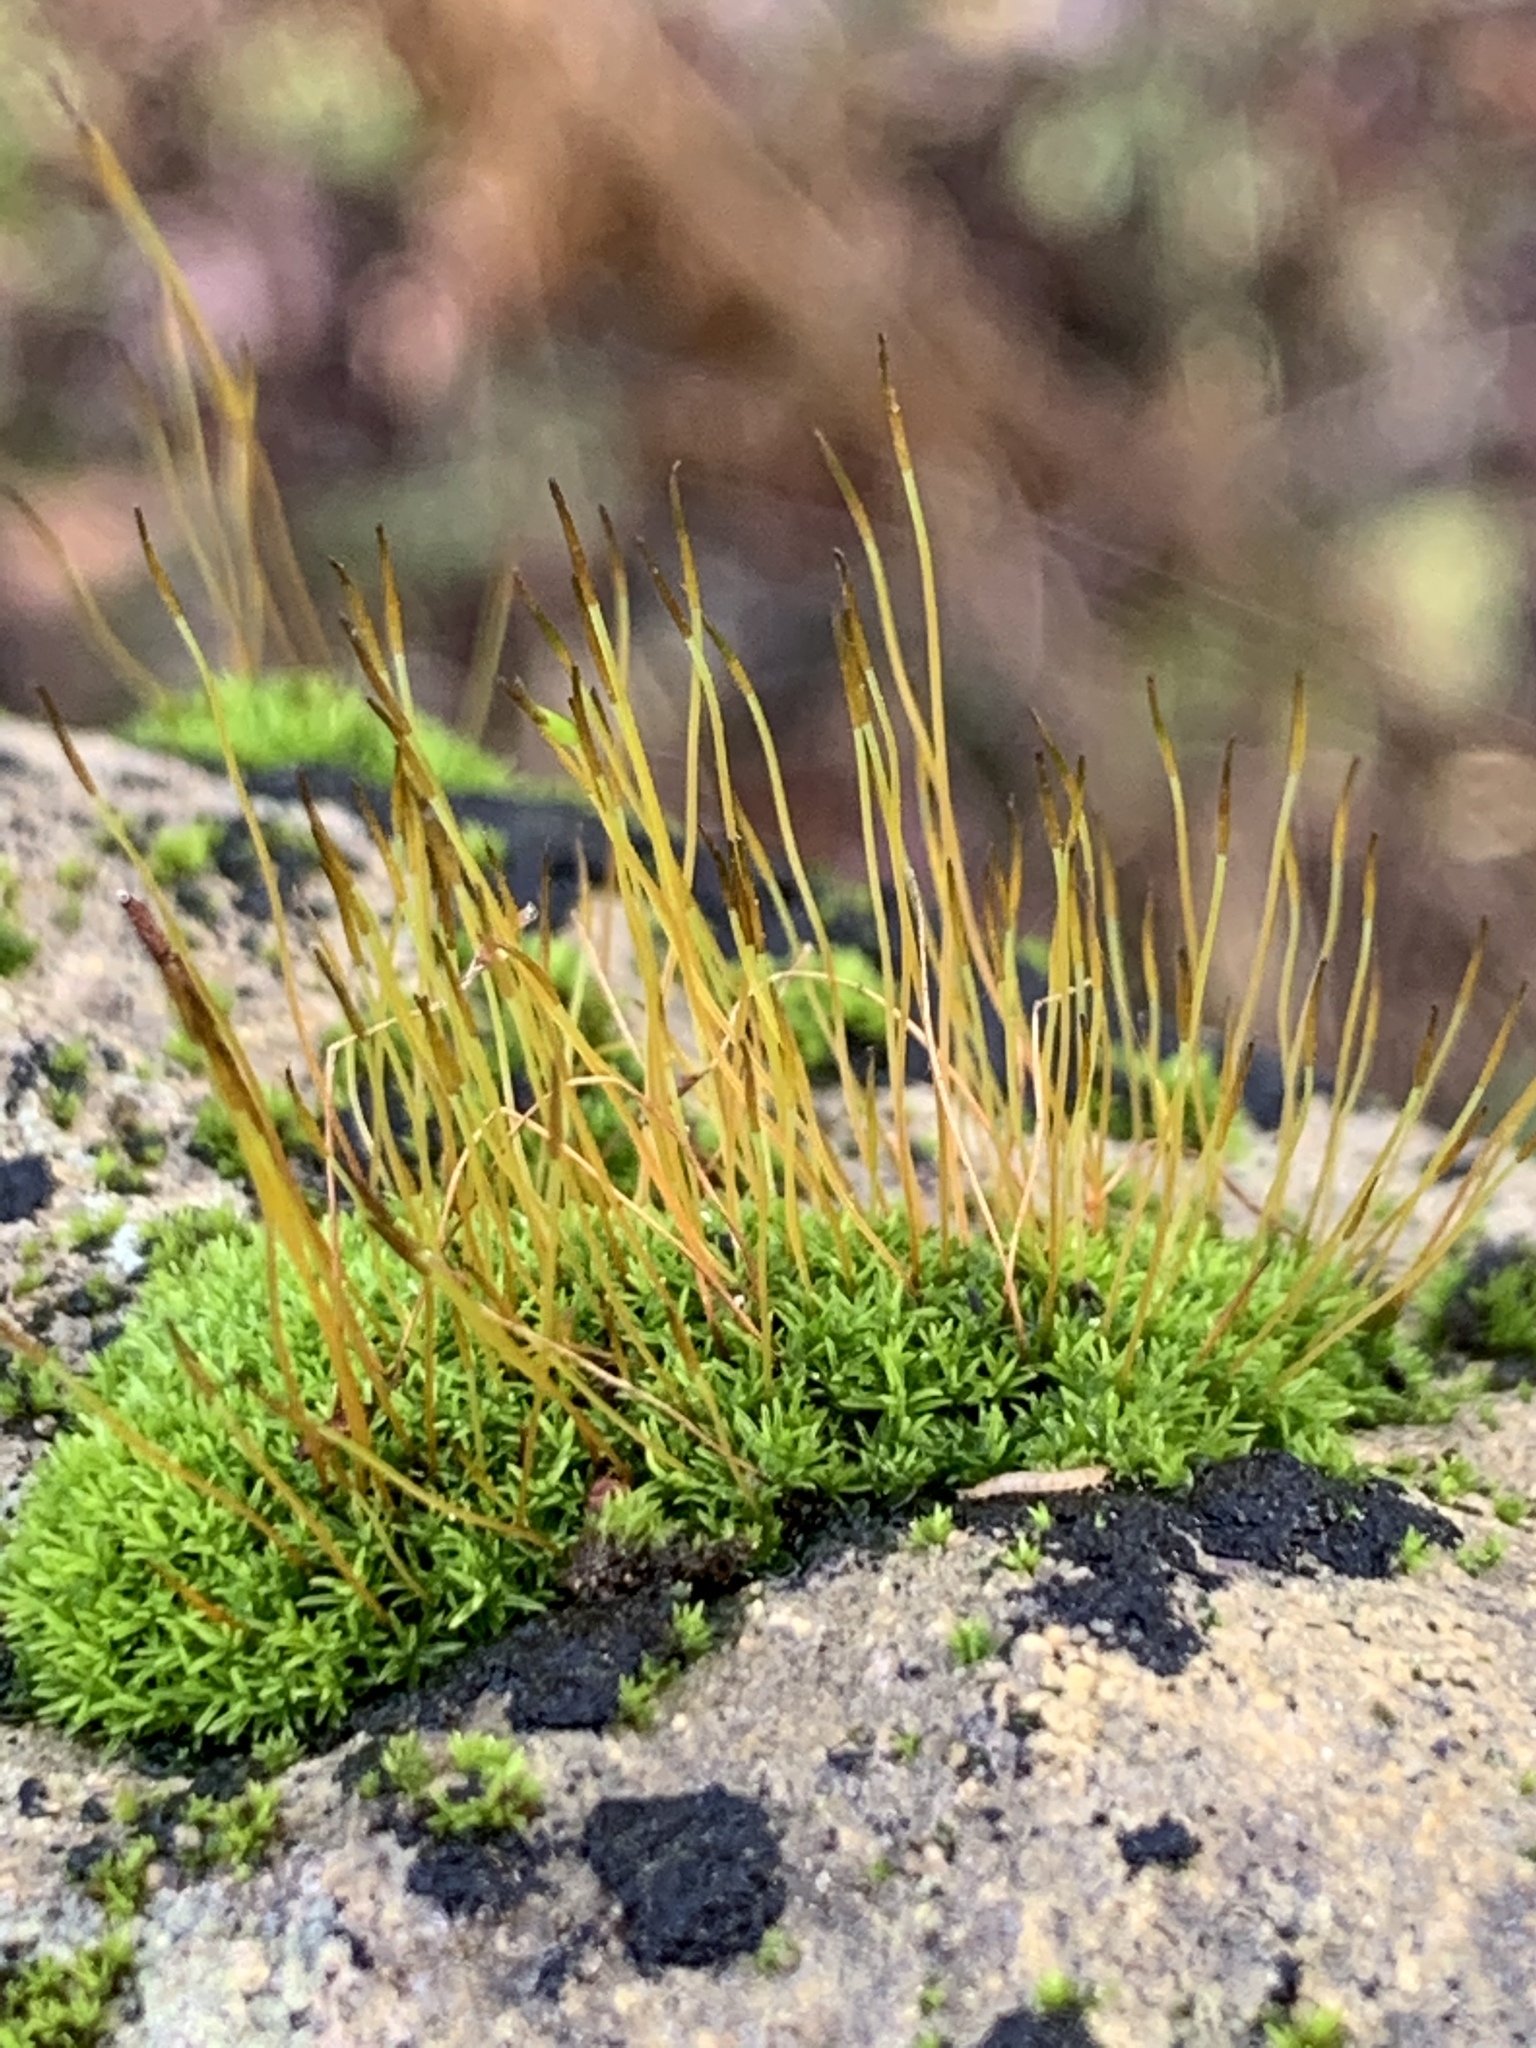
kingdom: Plantae
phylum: Bryophyta
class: Bryopsida
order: Pottiales
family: Pottiaceae
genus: Tortula
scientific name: Tortula muralis
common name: Wall screw-moss
